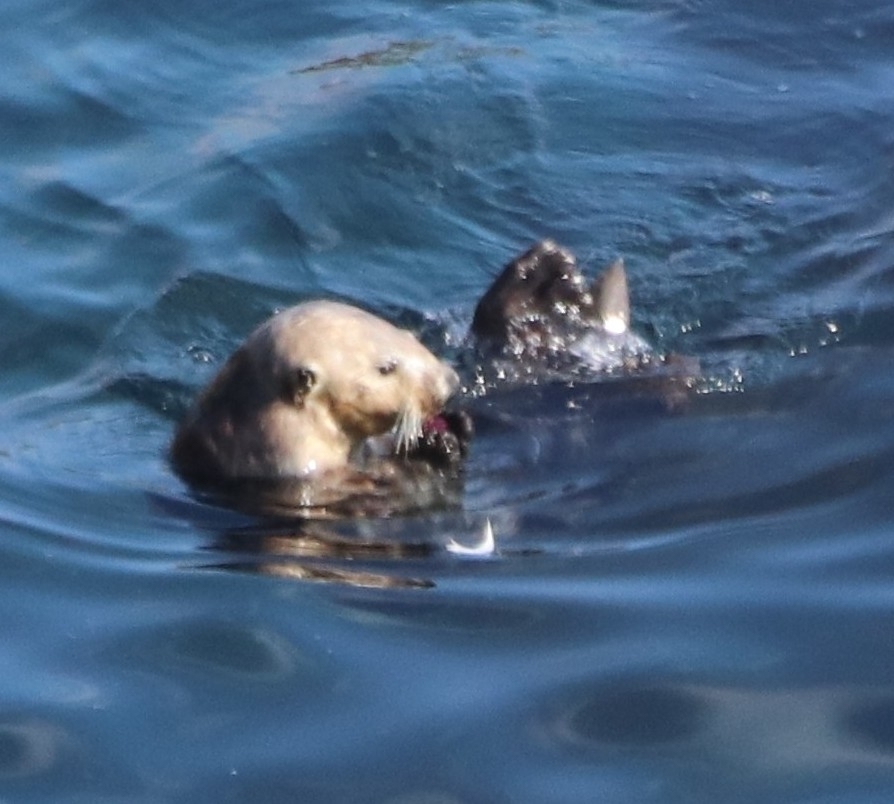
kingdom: Animalia
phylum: Chordata
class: Mammalia
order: Carnivora
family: Mustelidae
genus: Enhydra
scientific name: Enhydra lutris
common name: Sea otter
